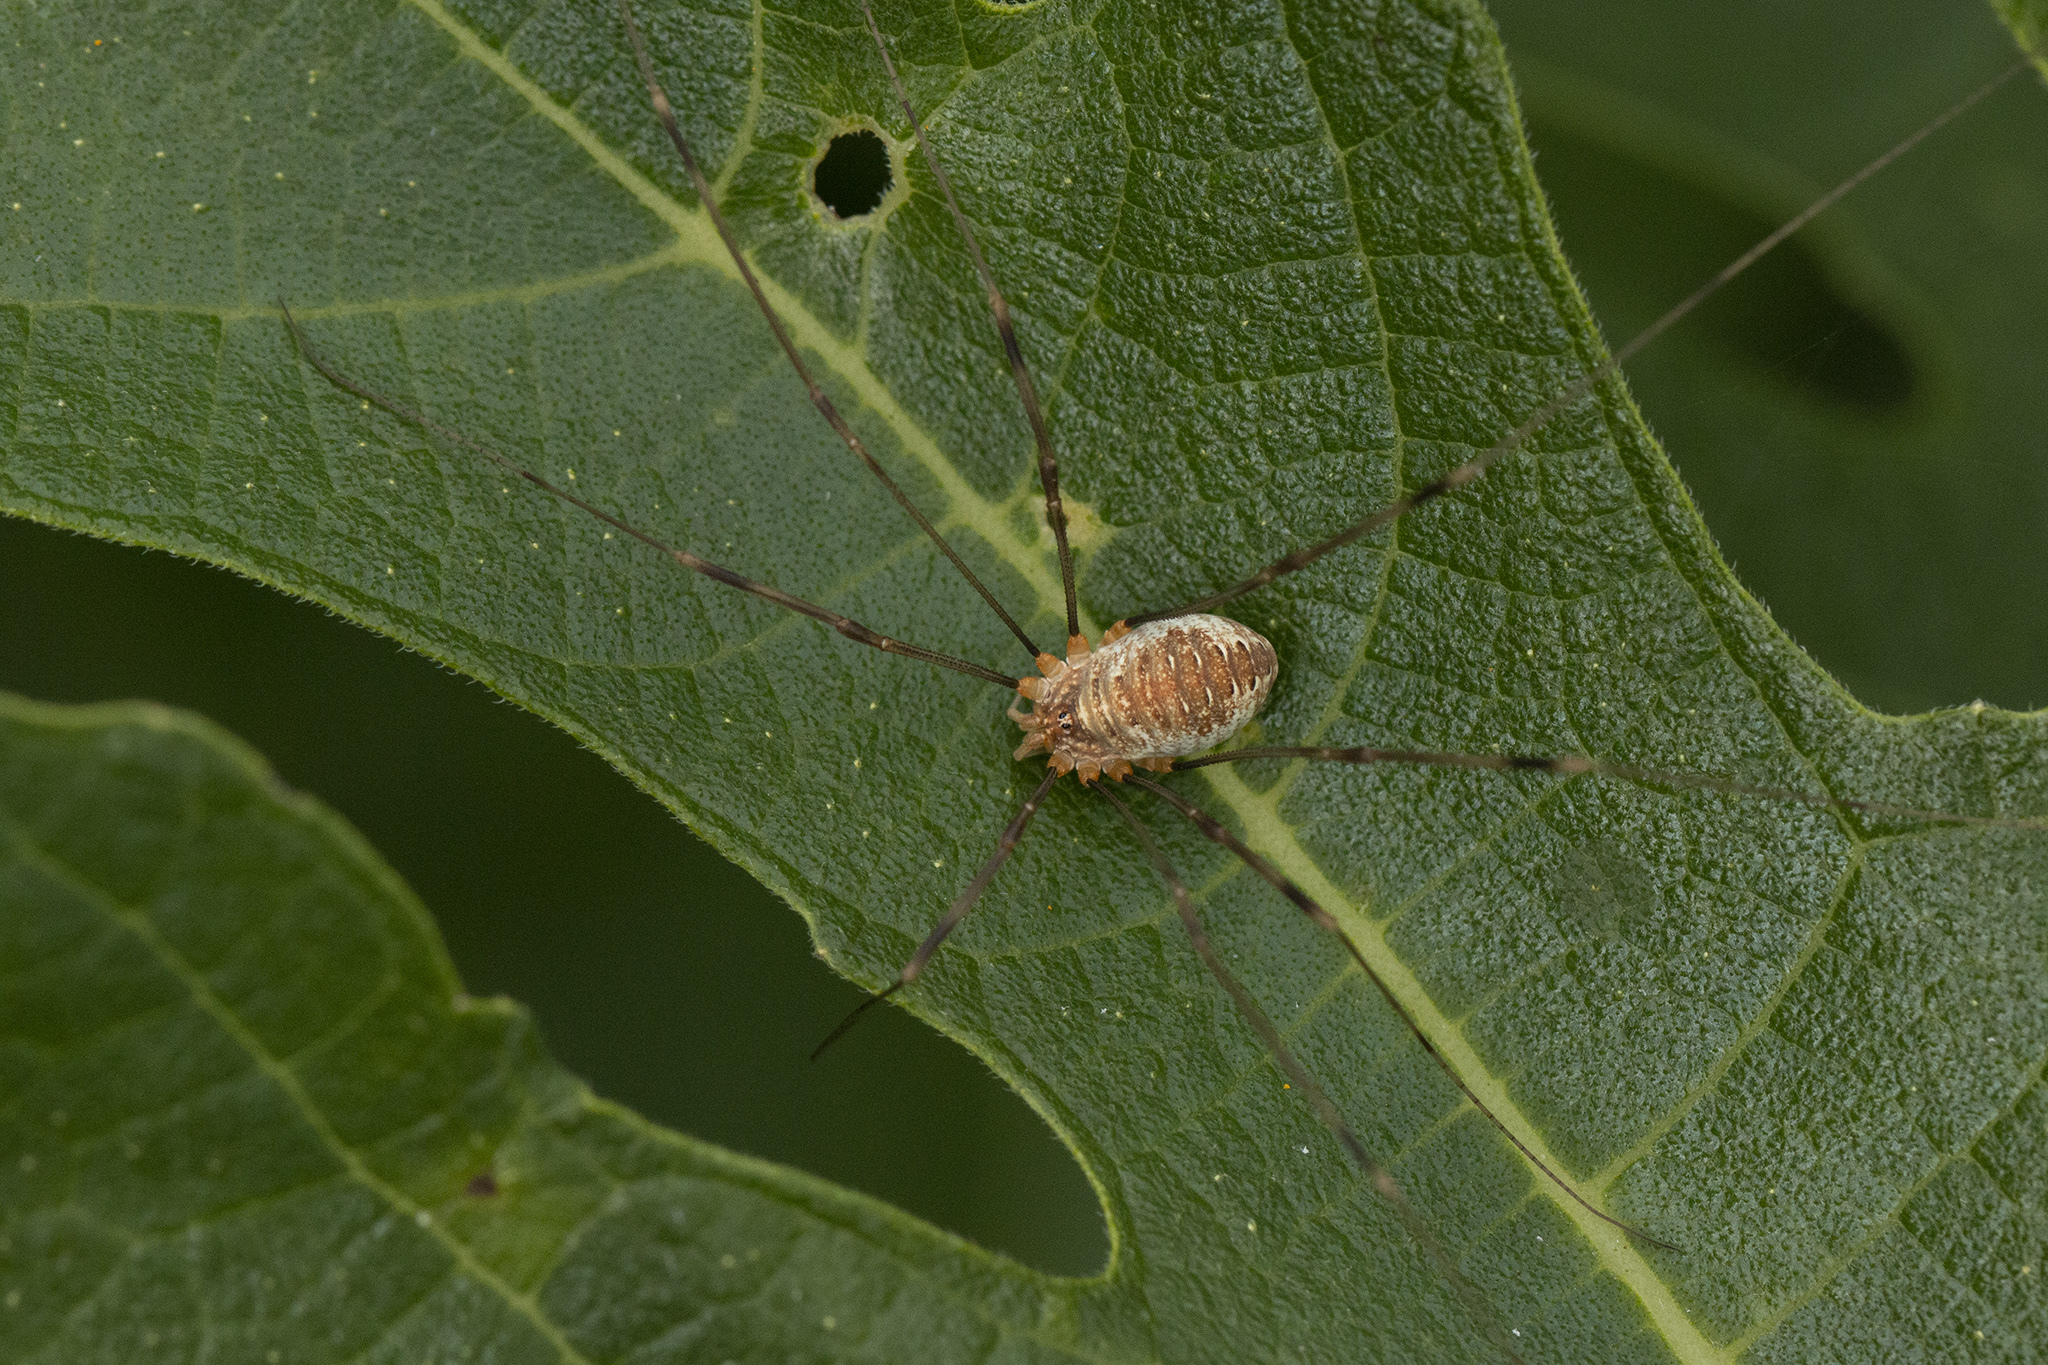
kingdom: Animalia
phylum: Arthropoda
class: Arachnida
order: Opiliones
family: Phalangiidae
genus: Opilio
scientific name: Opilio canestrinii
